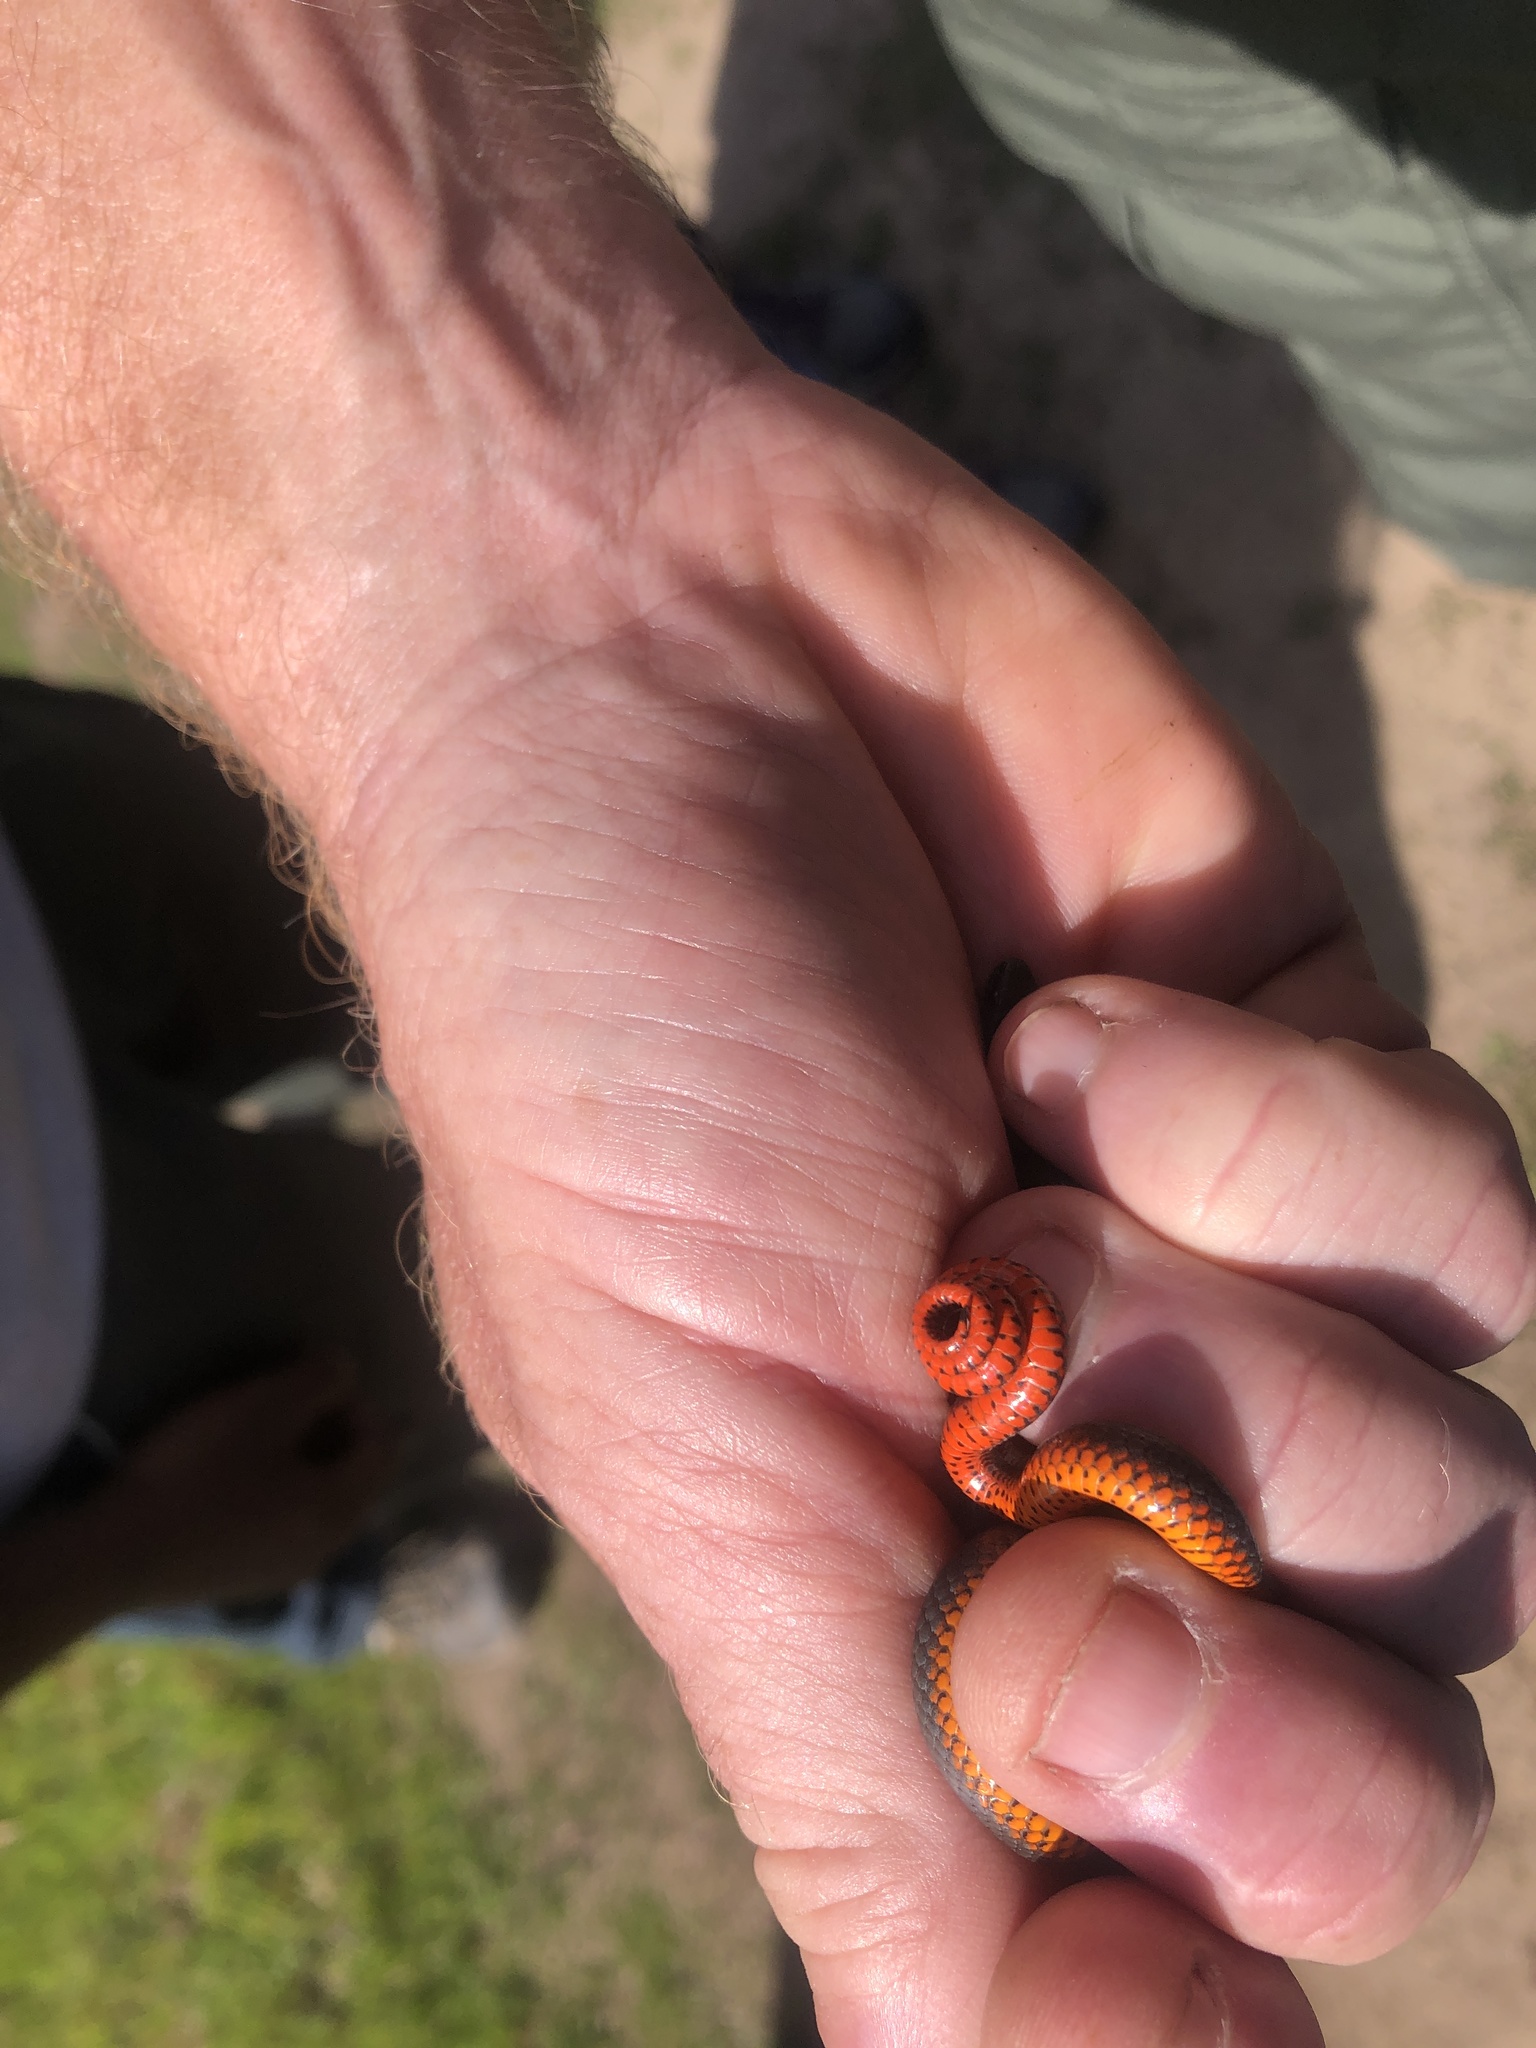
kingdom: Animalia
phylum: Chordata
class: Squamata
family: Colubridae
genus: Diadophis
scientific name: Diadophis punctatus
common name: Ringneck snake
